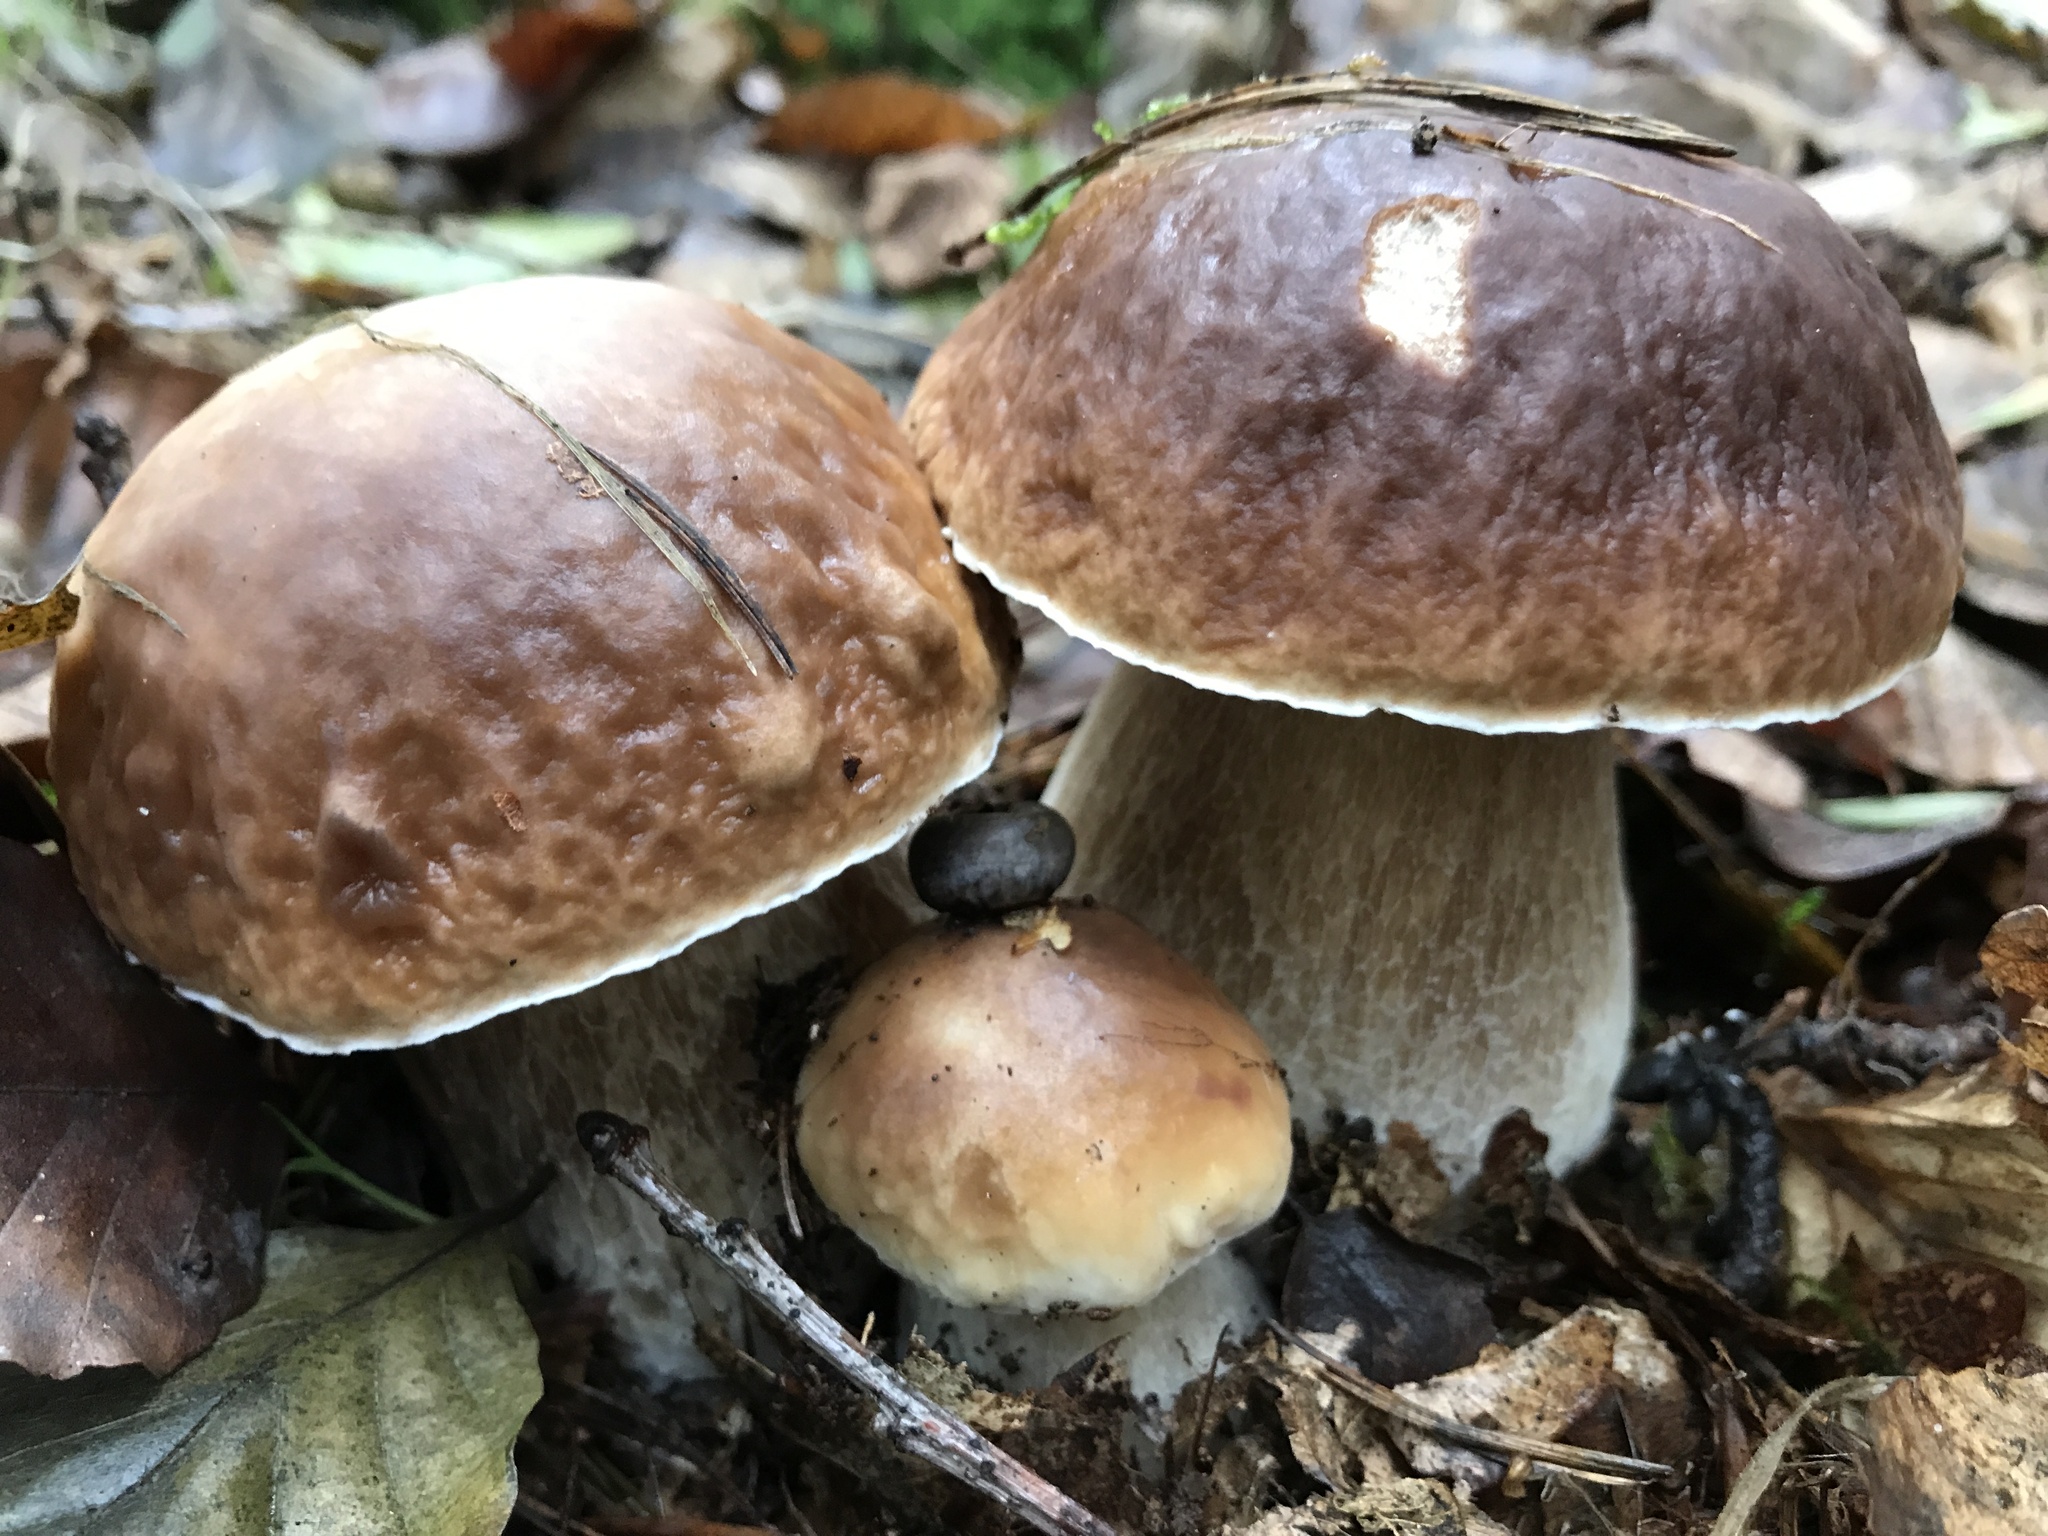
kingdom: Fungi
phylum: Basidiomycota
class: Agaricomycetes
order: Boletales
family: Boletaceae
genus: Boletus
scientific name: Boletus edulis
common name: Cep
